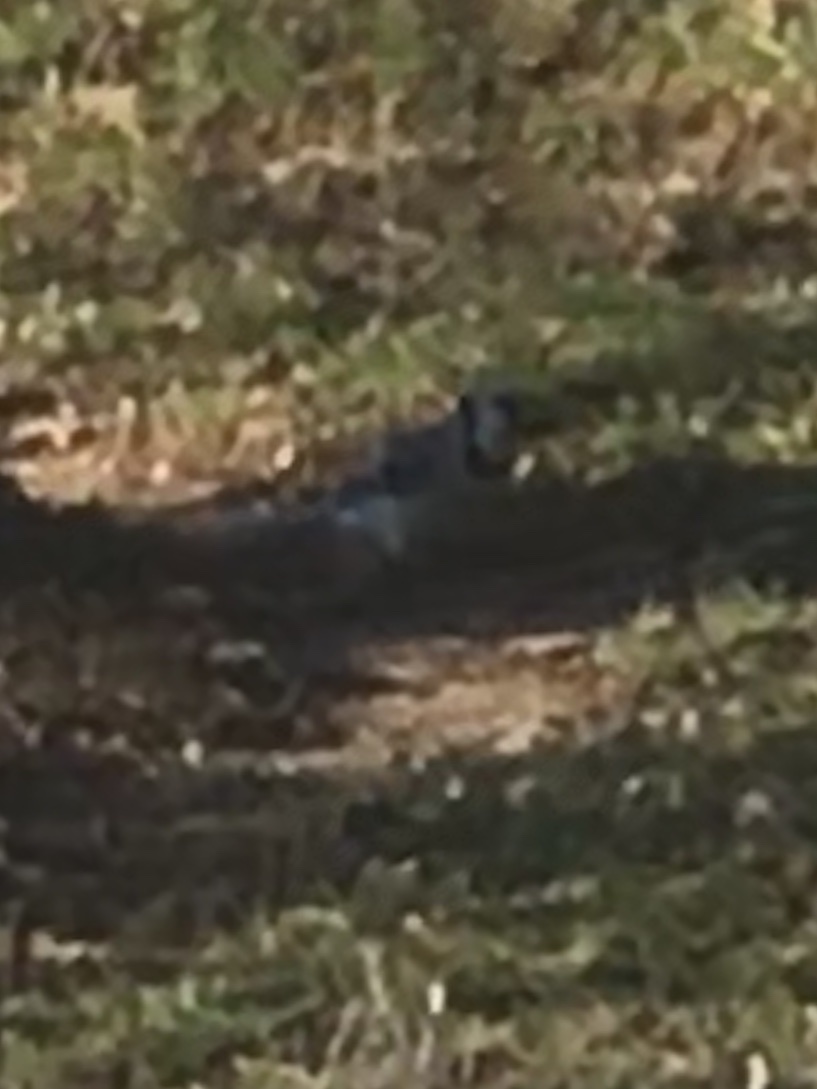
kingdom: Animalia
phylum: Chordata
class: Aves
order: Passeriformes
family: Corvidae
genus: Cyanocitta
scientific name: Cyanocitta cristata
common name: Blue jay
